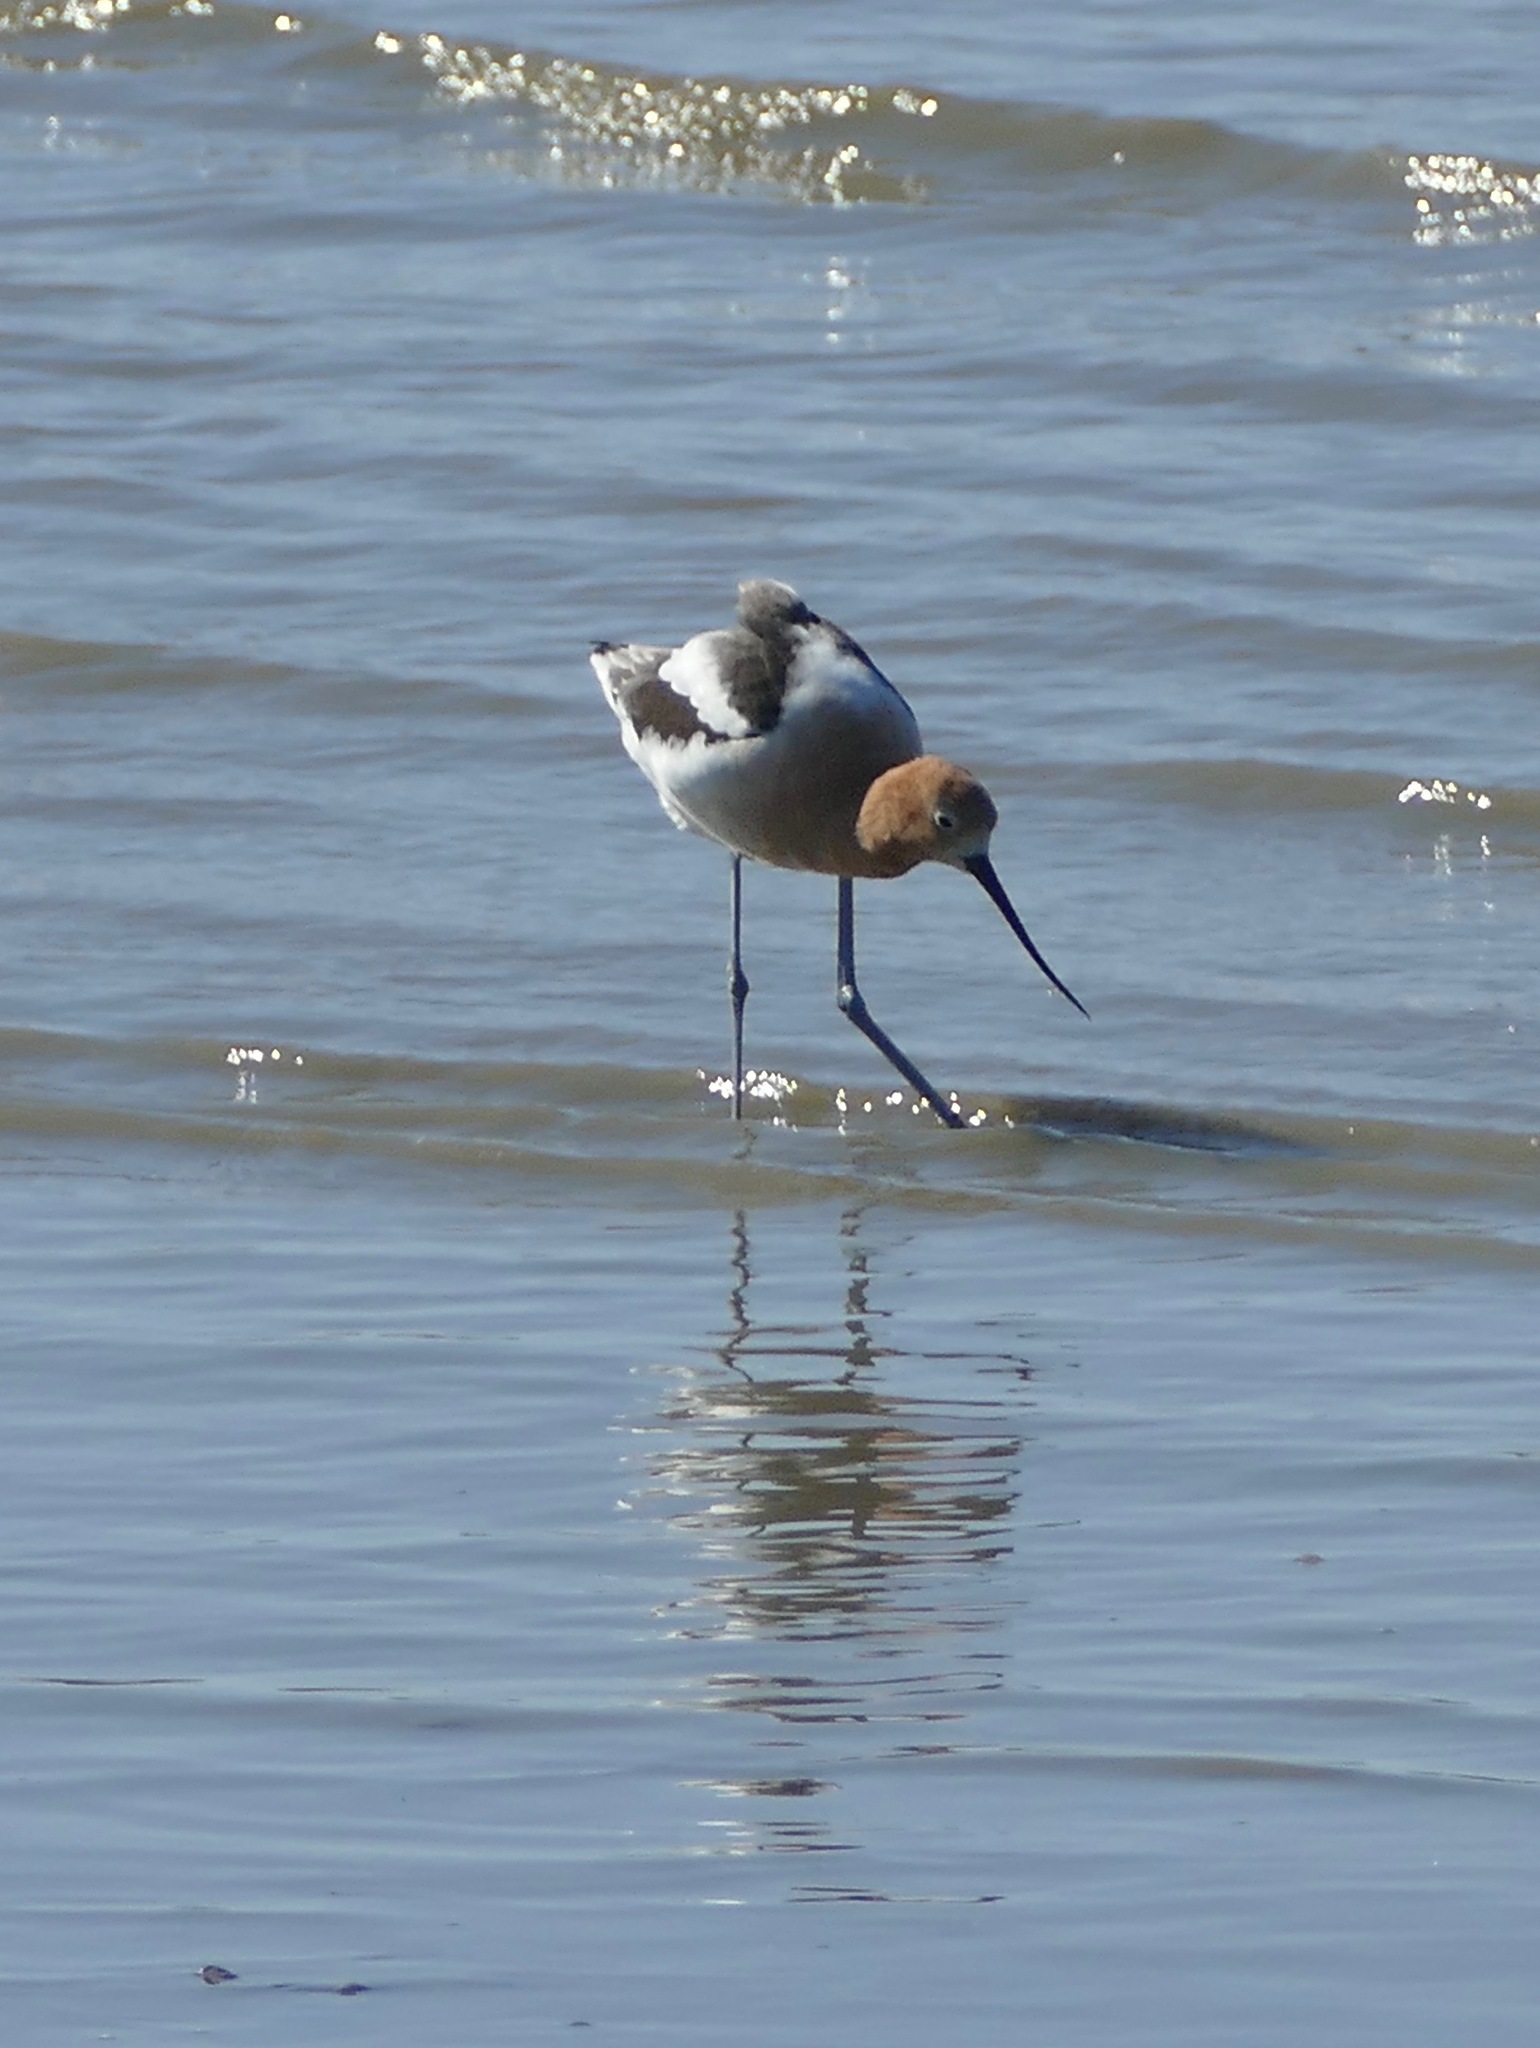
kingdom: Animalia
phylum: Chordata
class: Aves
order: Charadriiformes
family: Recurvirostridae
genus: Recurvirostra
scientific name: Recurvirostra americana
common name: American avocet
